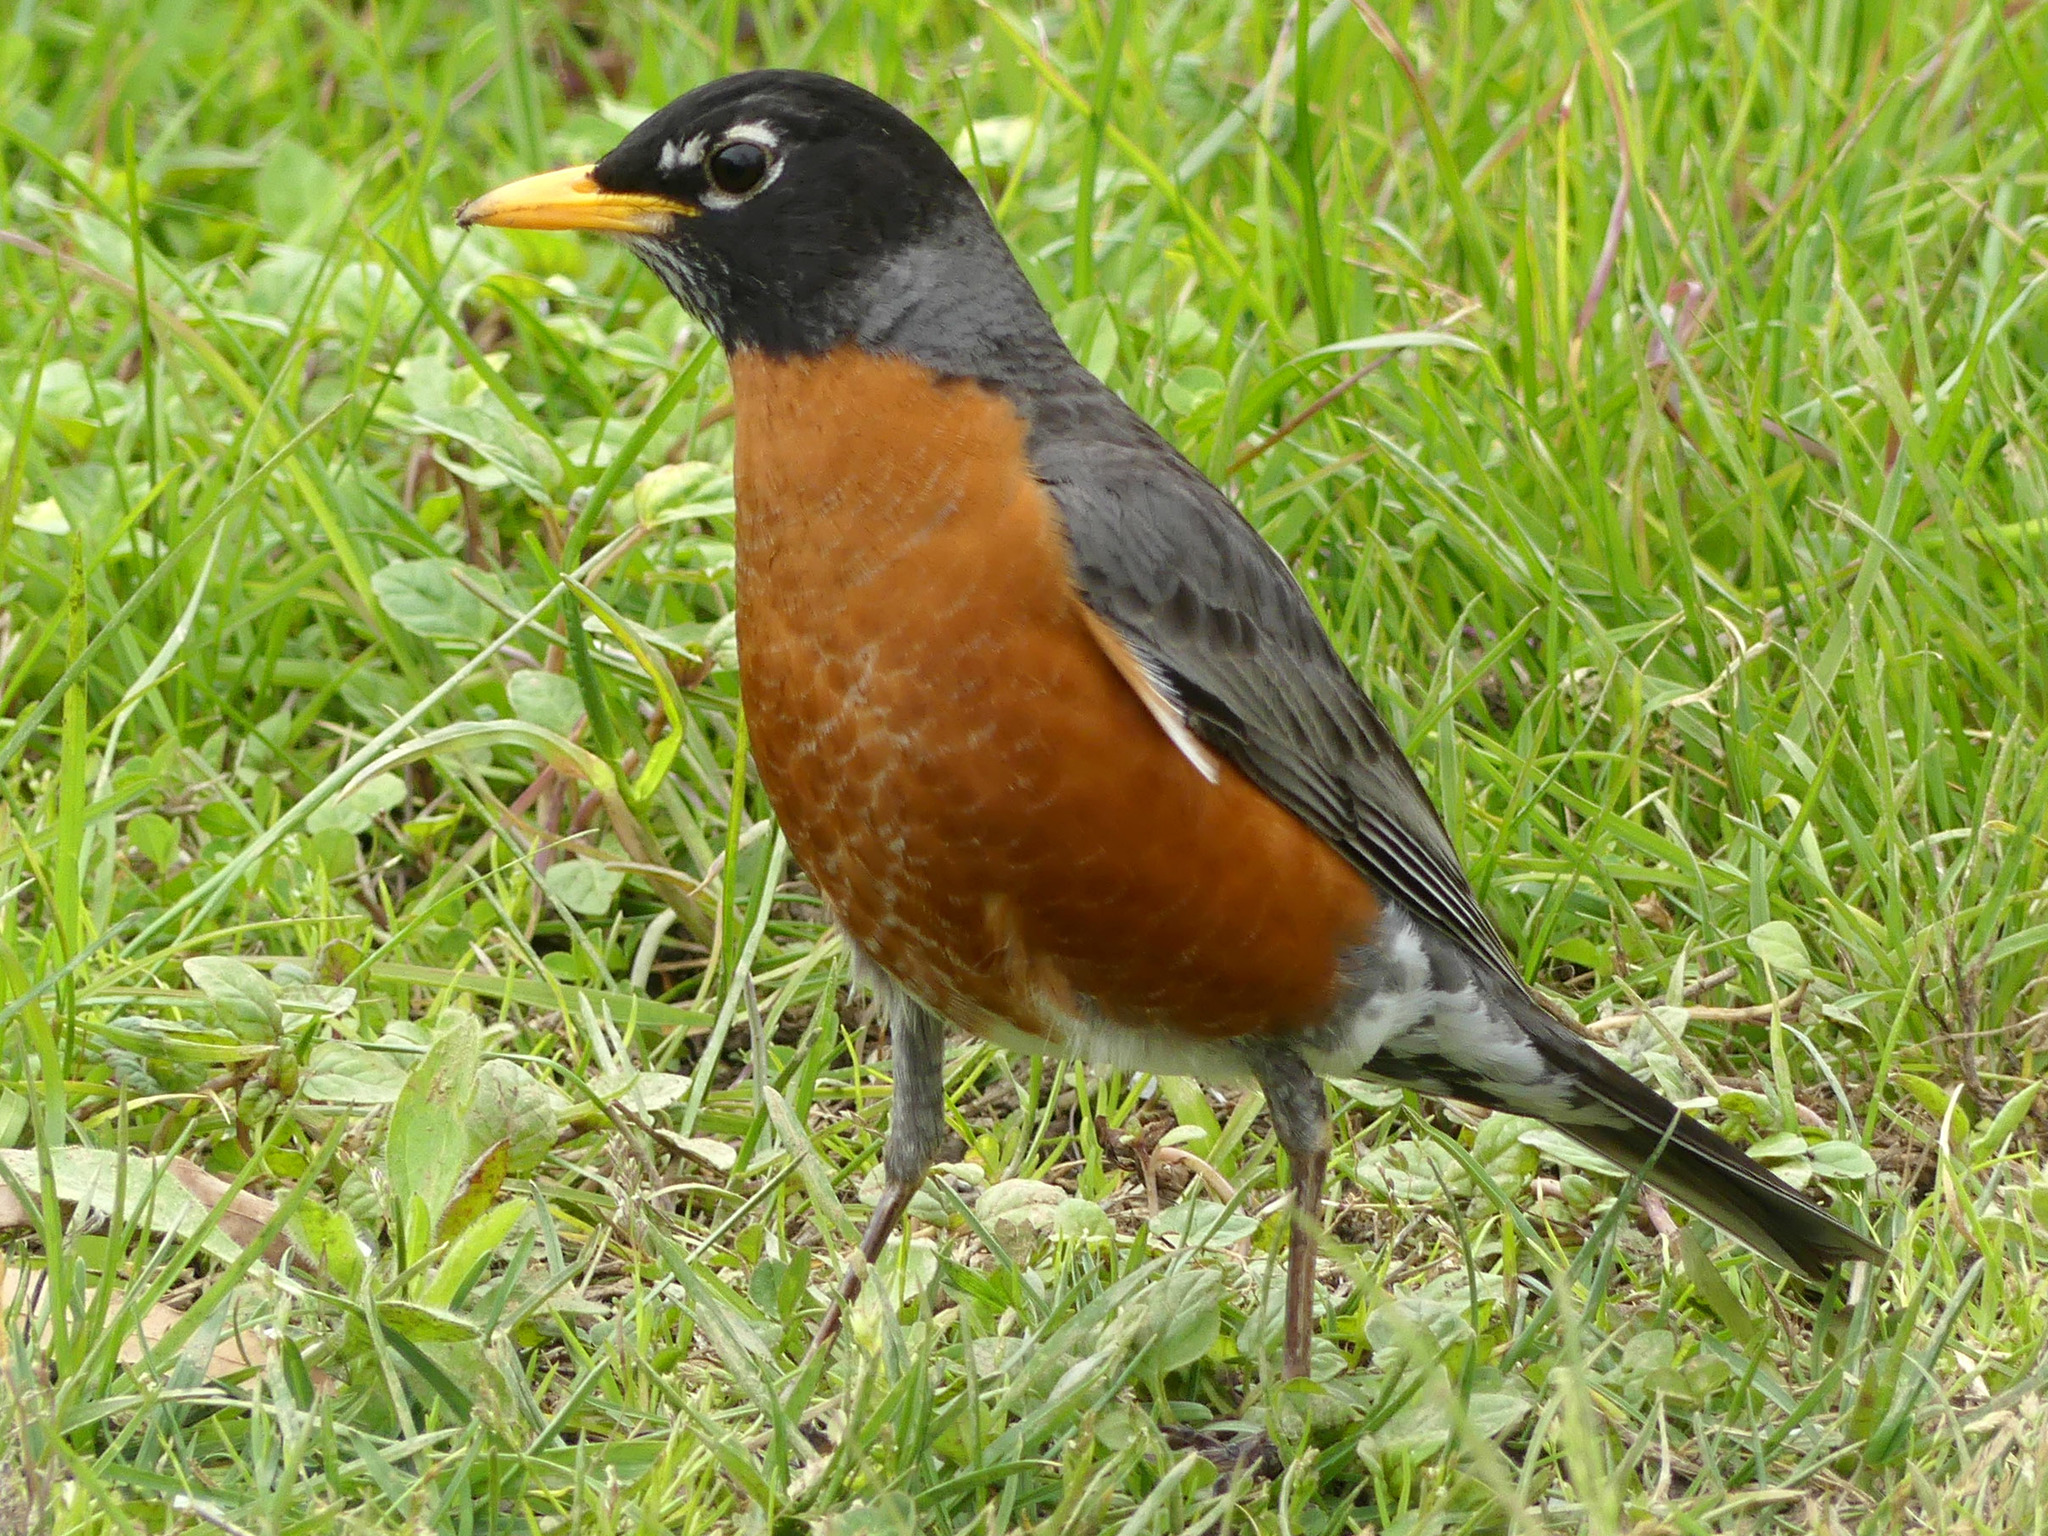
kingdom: Animalia
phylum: Chordata
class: Aves
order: Passeriformes
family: Turdidae
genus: Turdus
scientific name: Turdus migratorius
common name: American robin
